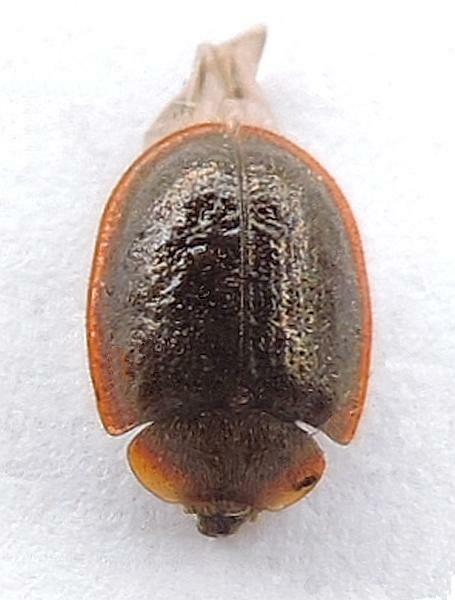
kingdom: Animalia
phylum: Arthropoda
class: Insecta
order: Coleoptera
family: Trogossitidae
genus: Thymalus
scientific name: Thymalus marginicollis
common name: Bark-gnawing beetle
